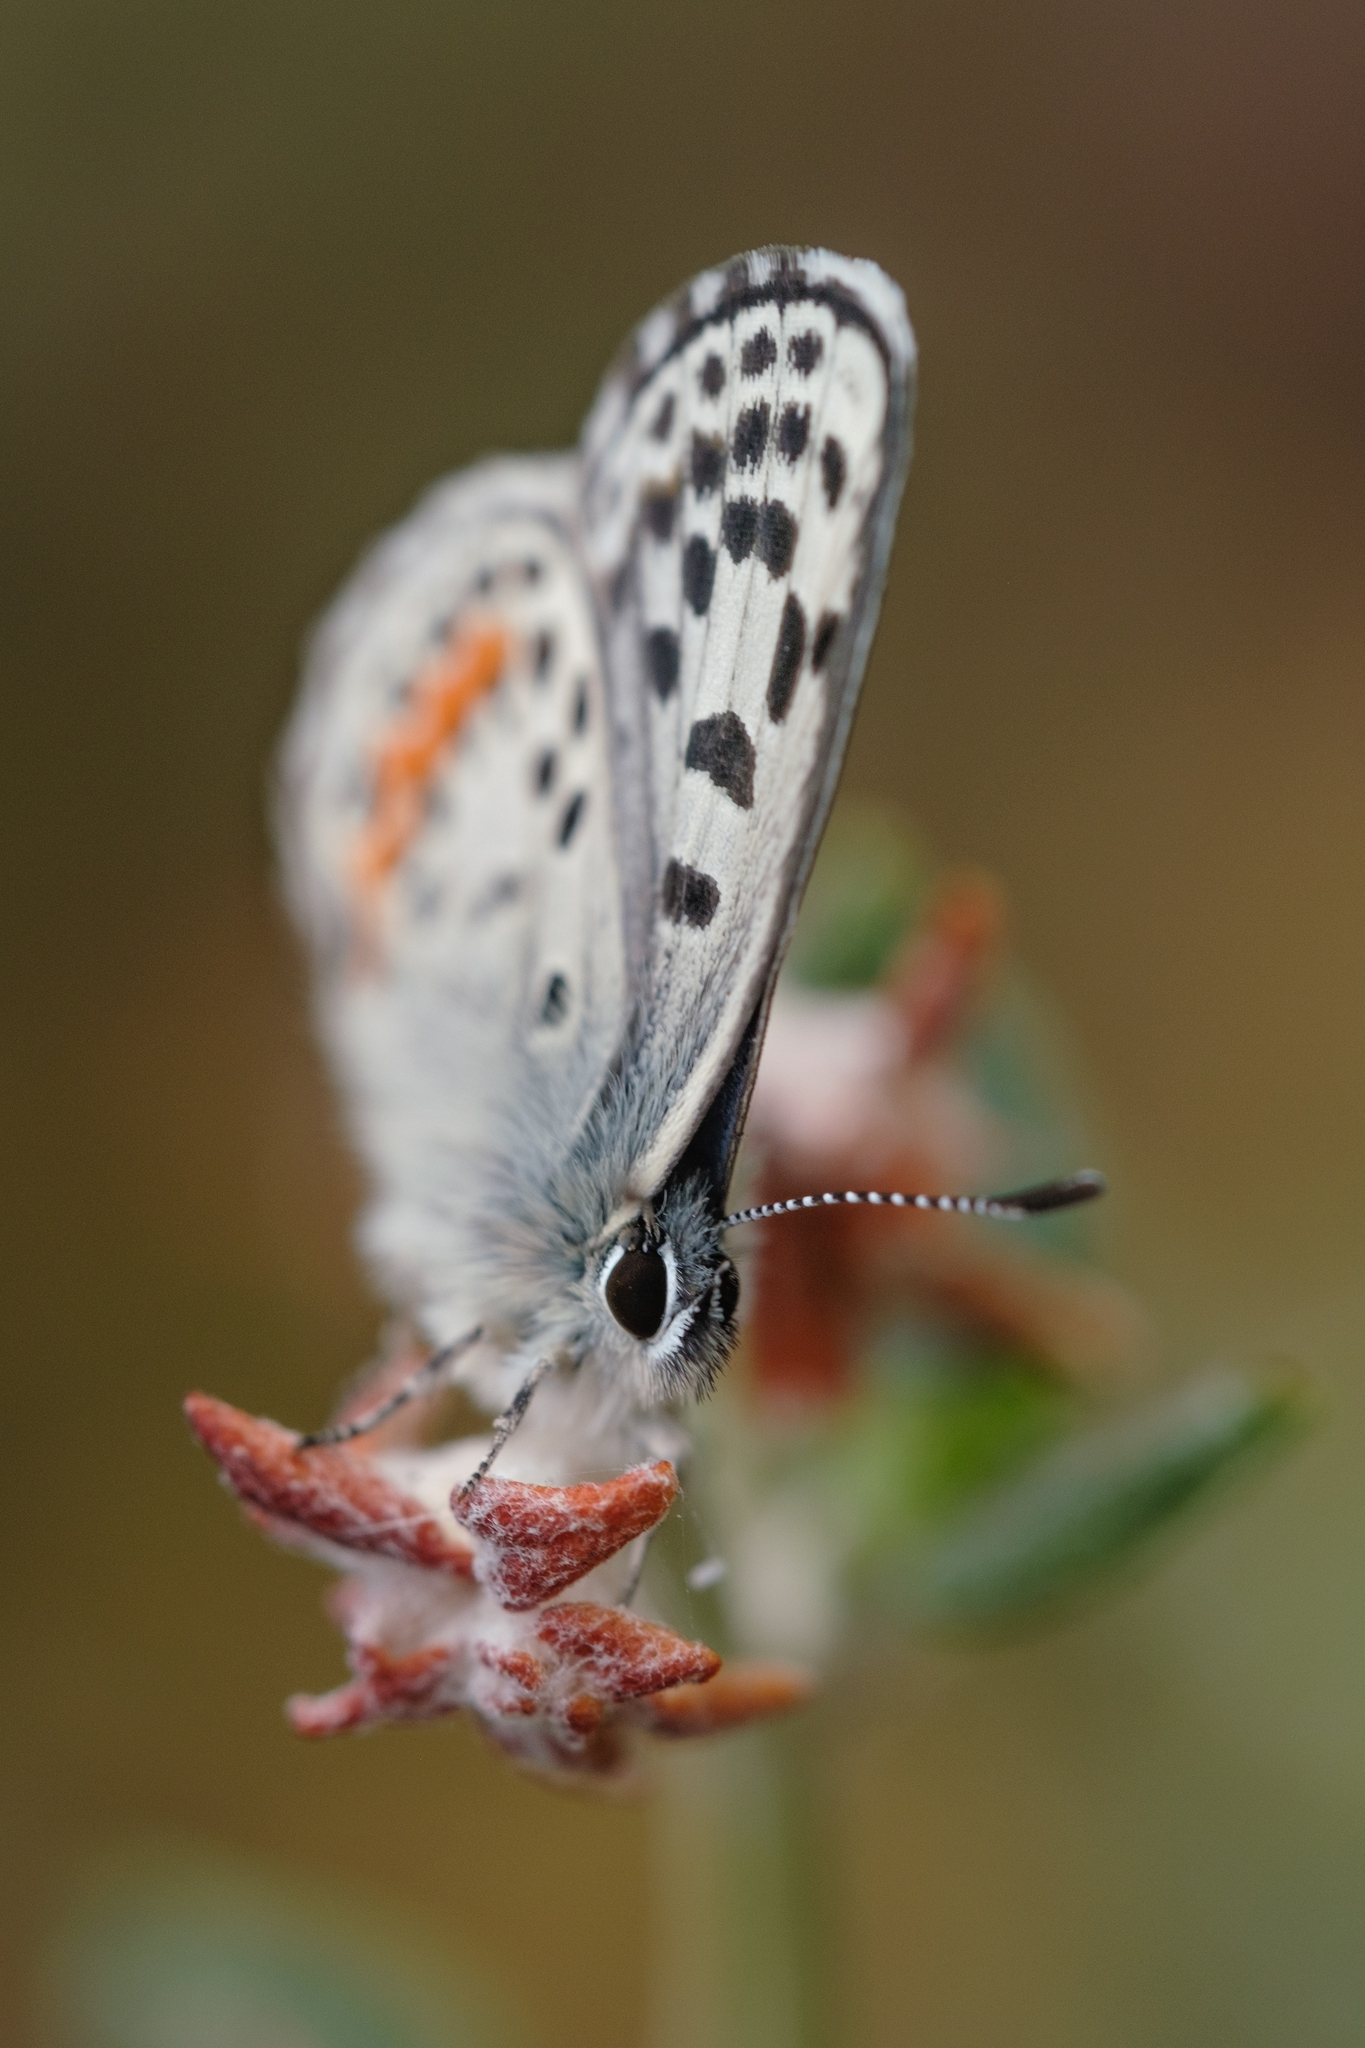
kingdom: Animalia
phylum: Arthropoda
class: Insecta
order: Lepidoptera
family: Lycaenidae
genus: Euphilotes
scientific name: Euphilotes battoides
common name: Square-spotted blue
